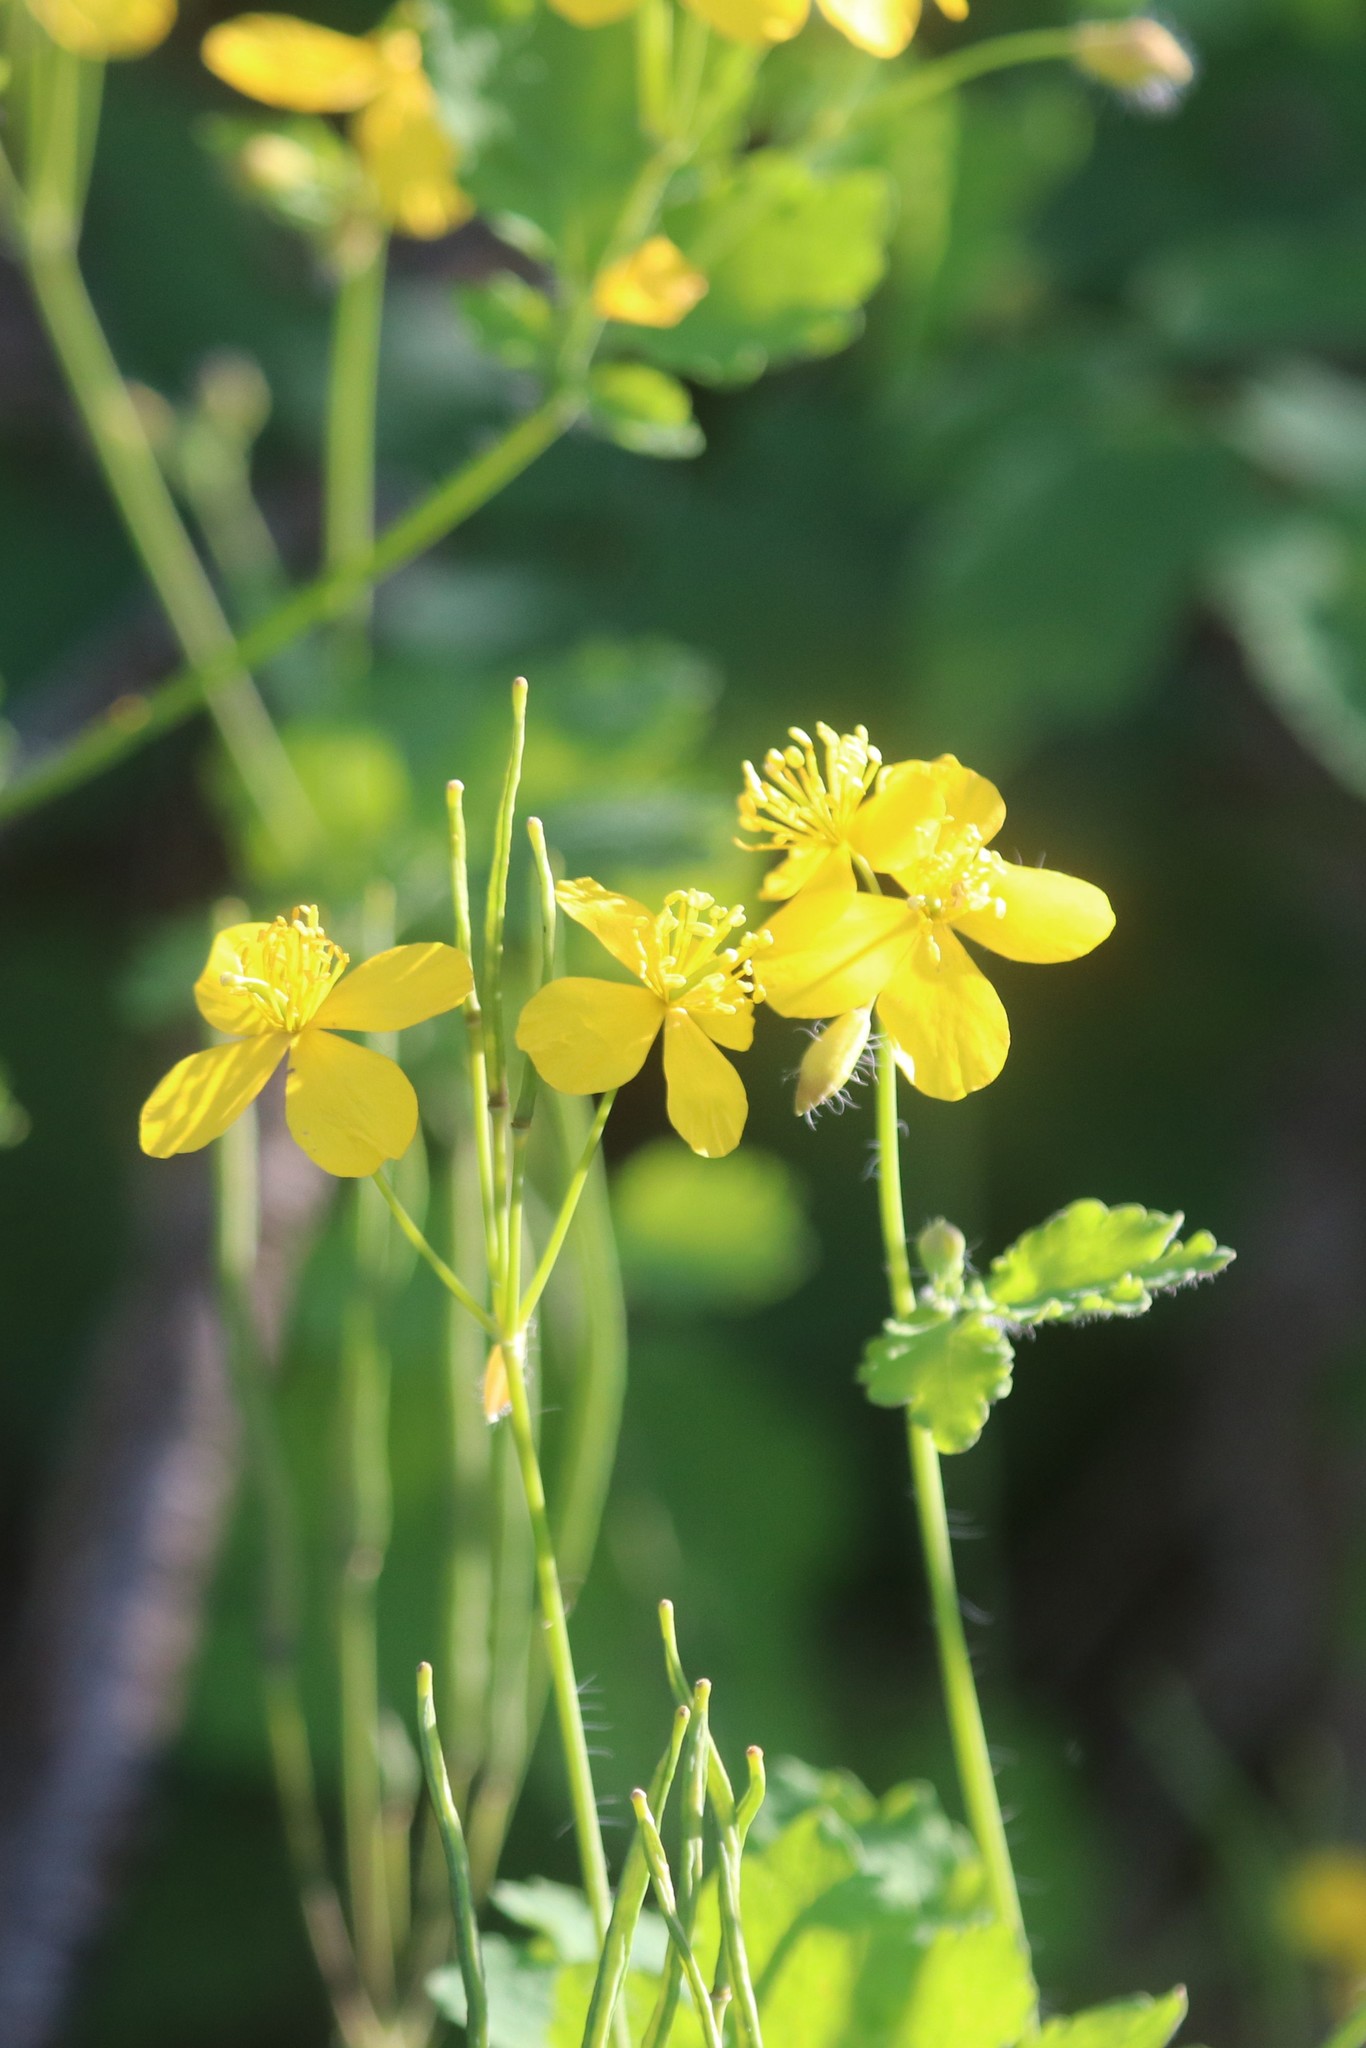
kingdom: Plantae
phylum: Tracheophyta
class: Magnoliopsida
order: Ranunculales
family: Papaveraceae
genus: Chelidonium
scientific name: Chelidonium majus
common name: Greater celandine
